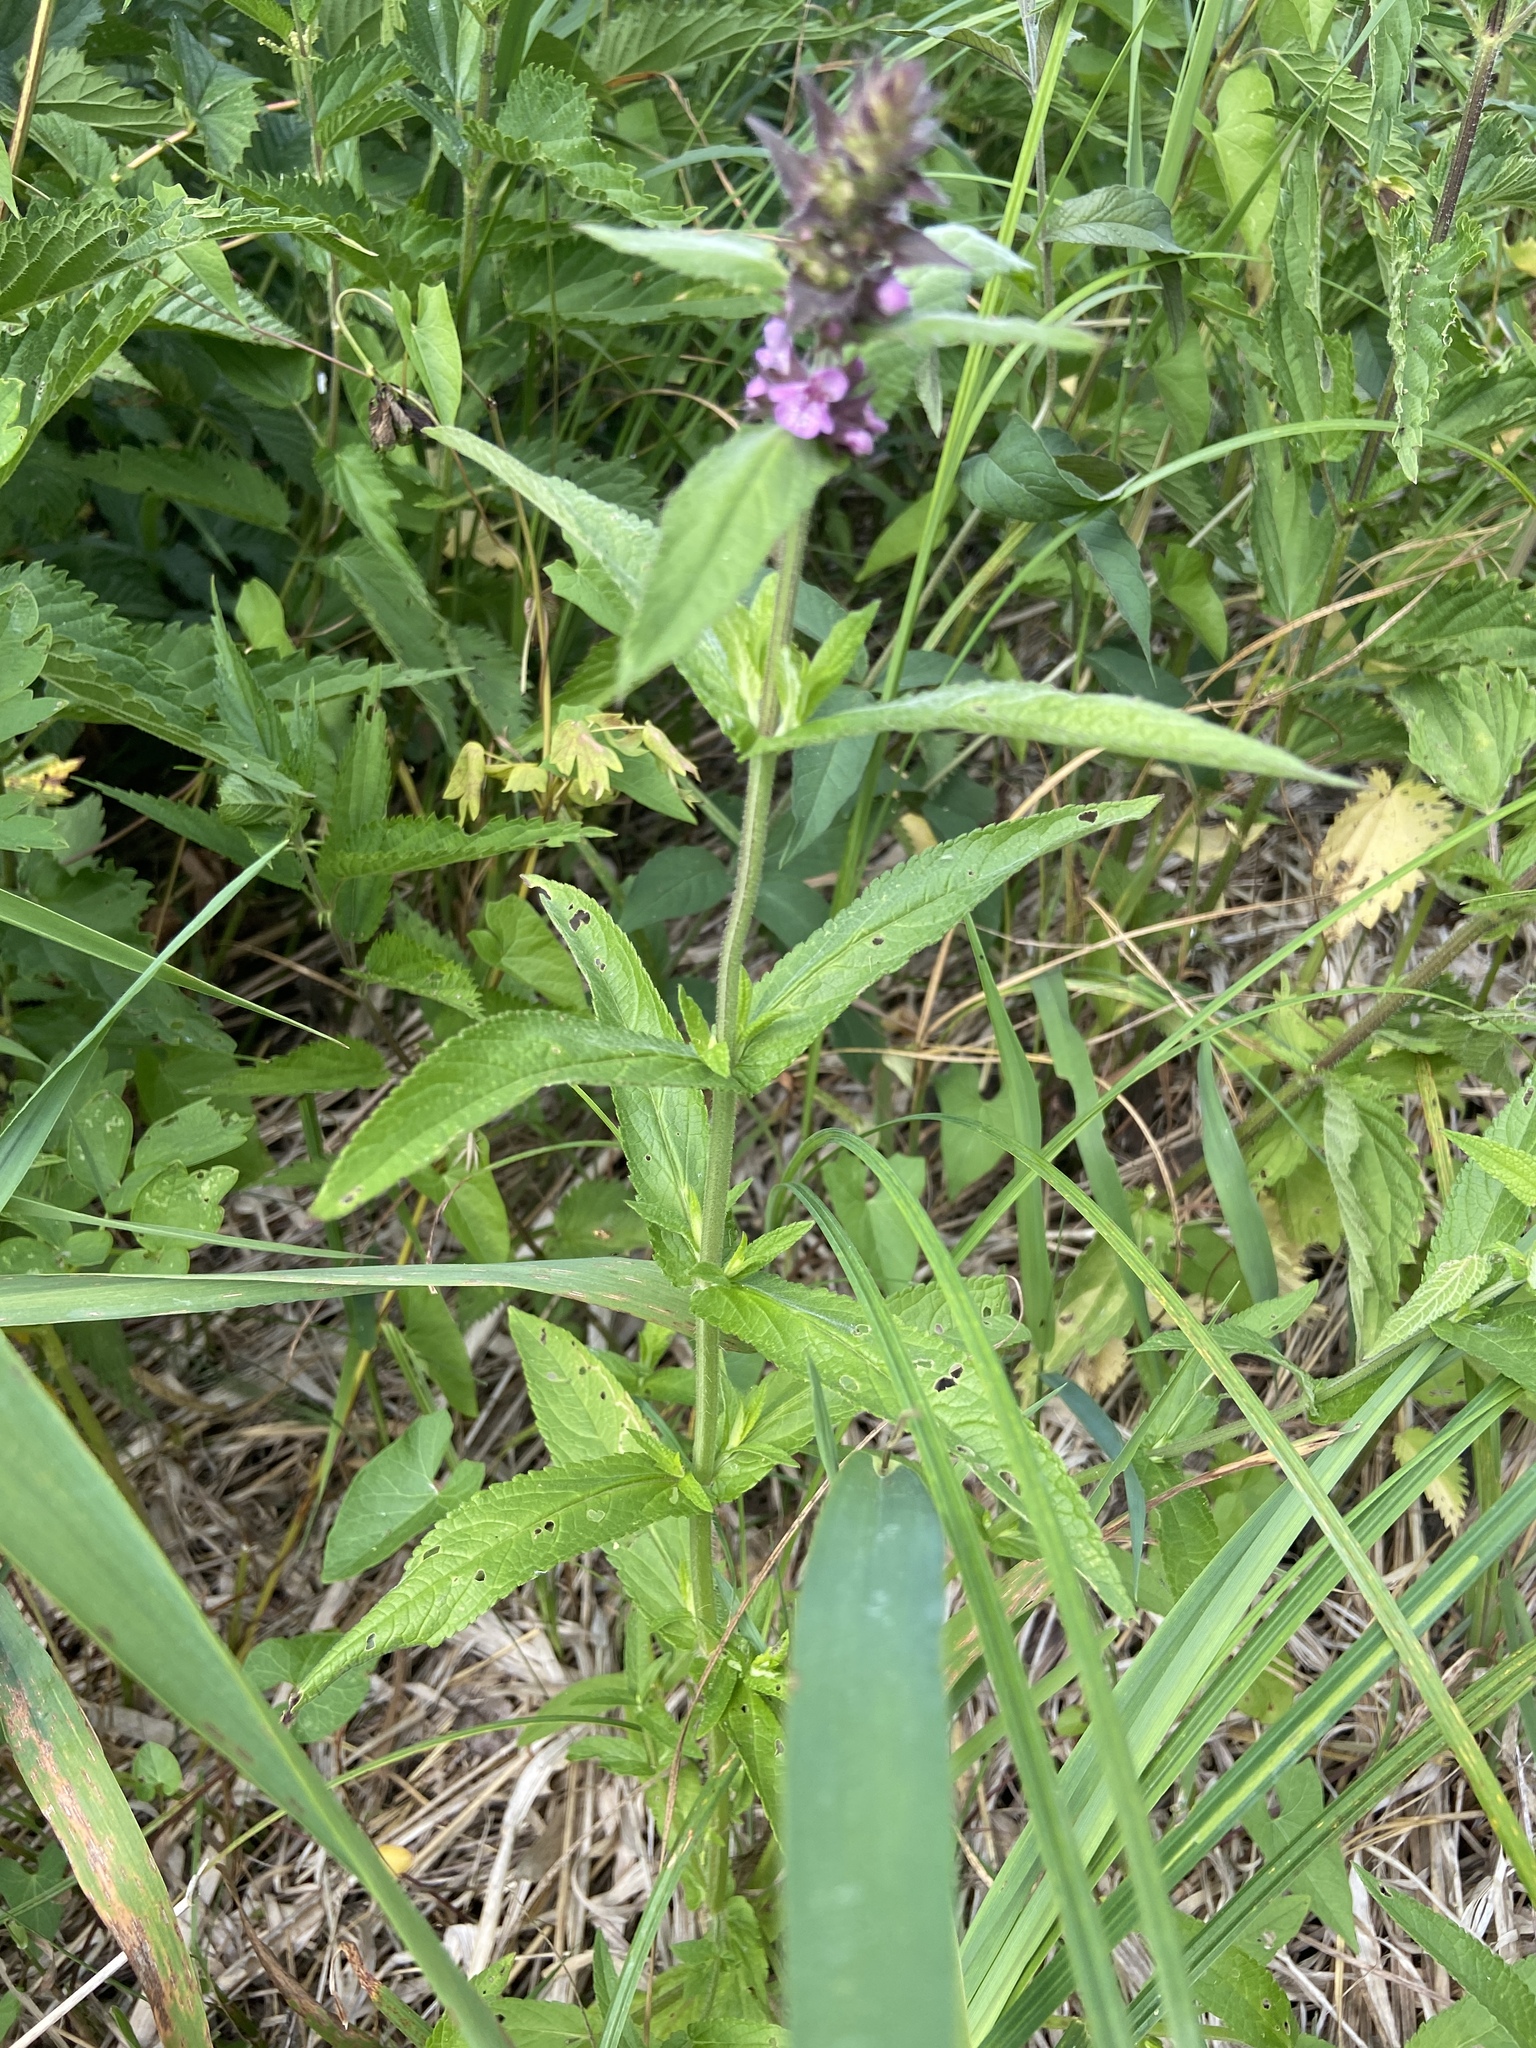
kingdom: Plantae
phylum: Tracheophyta
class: Magnoliopsida
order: Lamiales
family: Lamiaceae
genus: Stachys
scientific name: Stachys palustris
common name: Marsh woundwort
